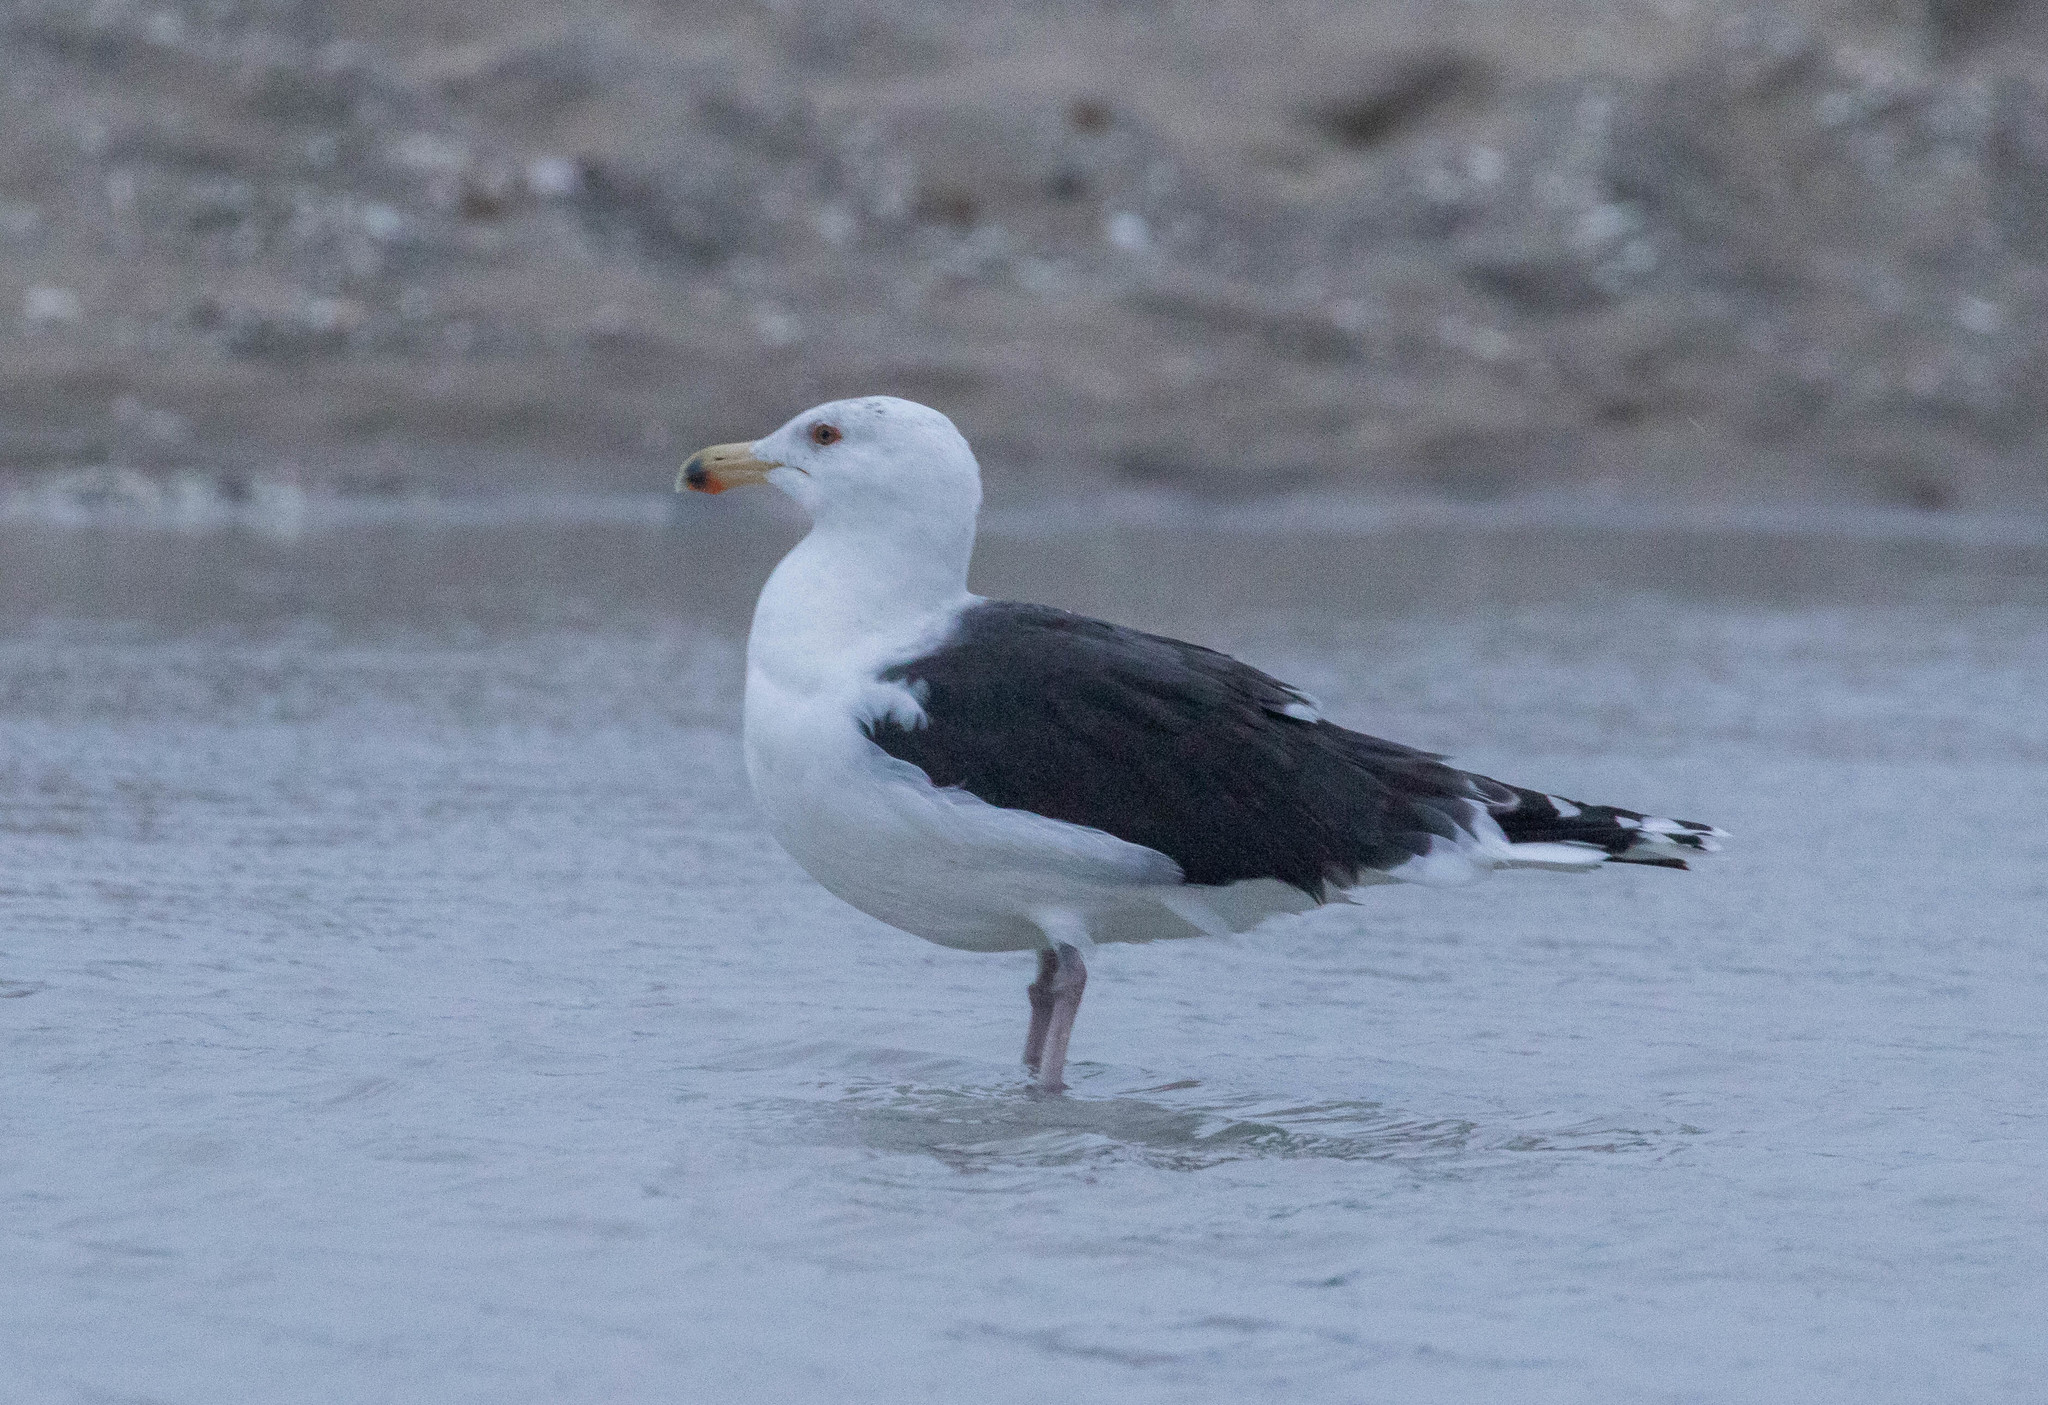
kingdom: Animalia
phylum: Chordata
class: Aves
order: Charadriiformes
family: Laridae
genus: Larus
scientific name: Larus marinus
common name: Great black-backed gull
